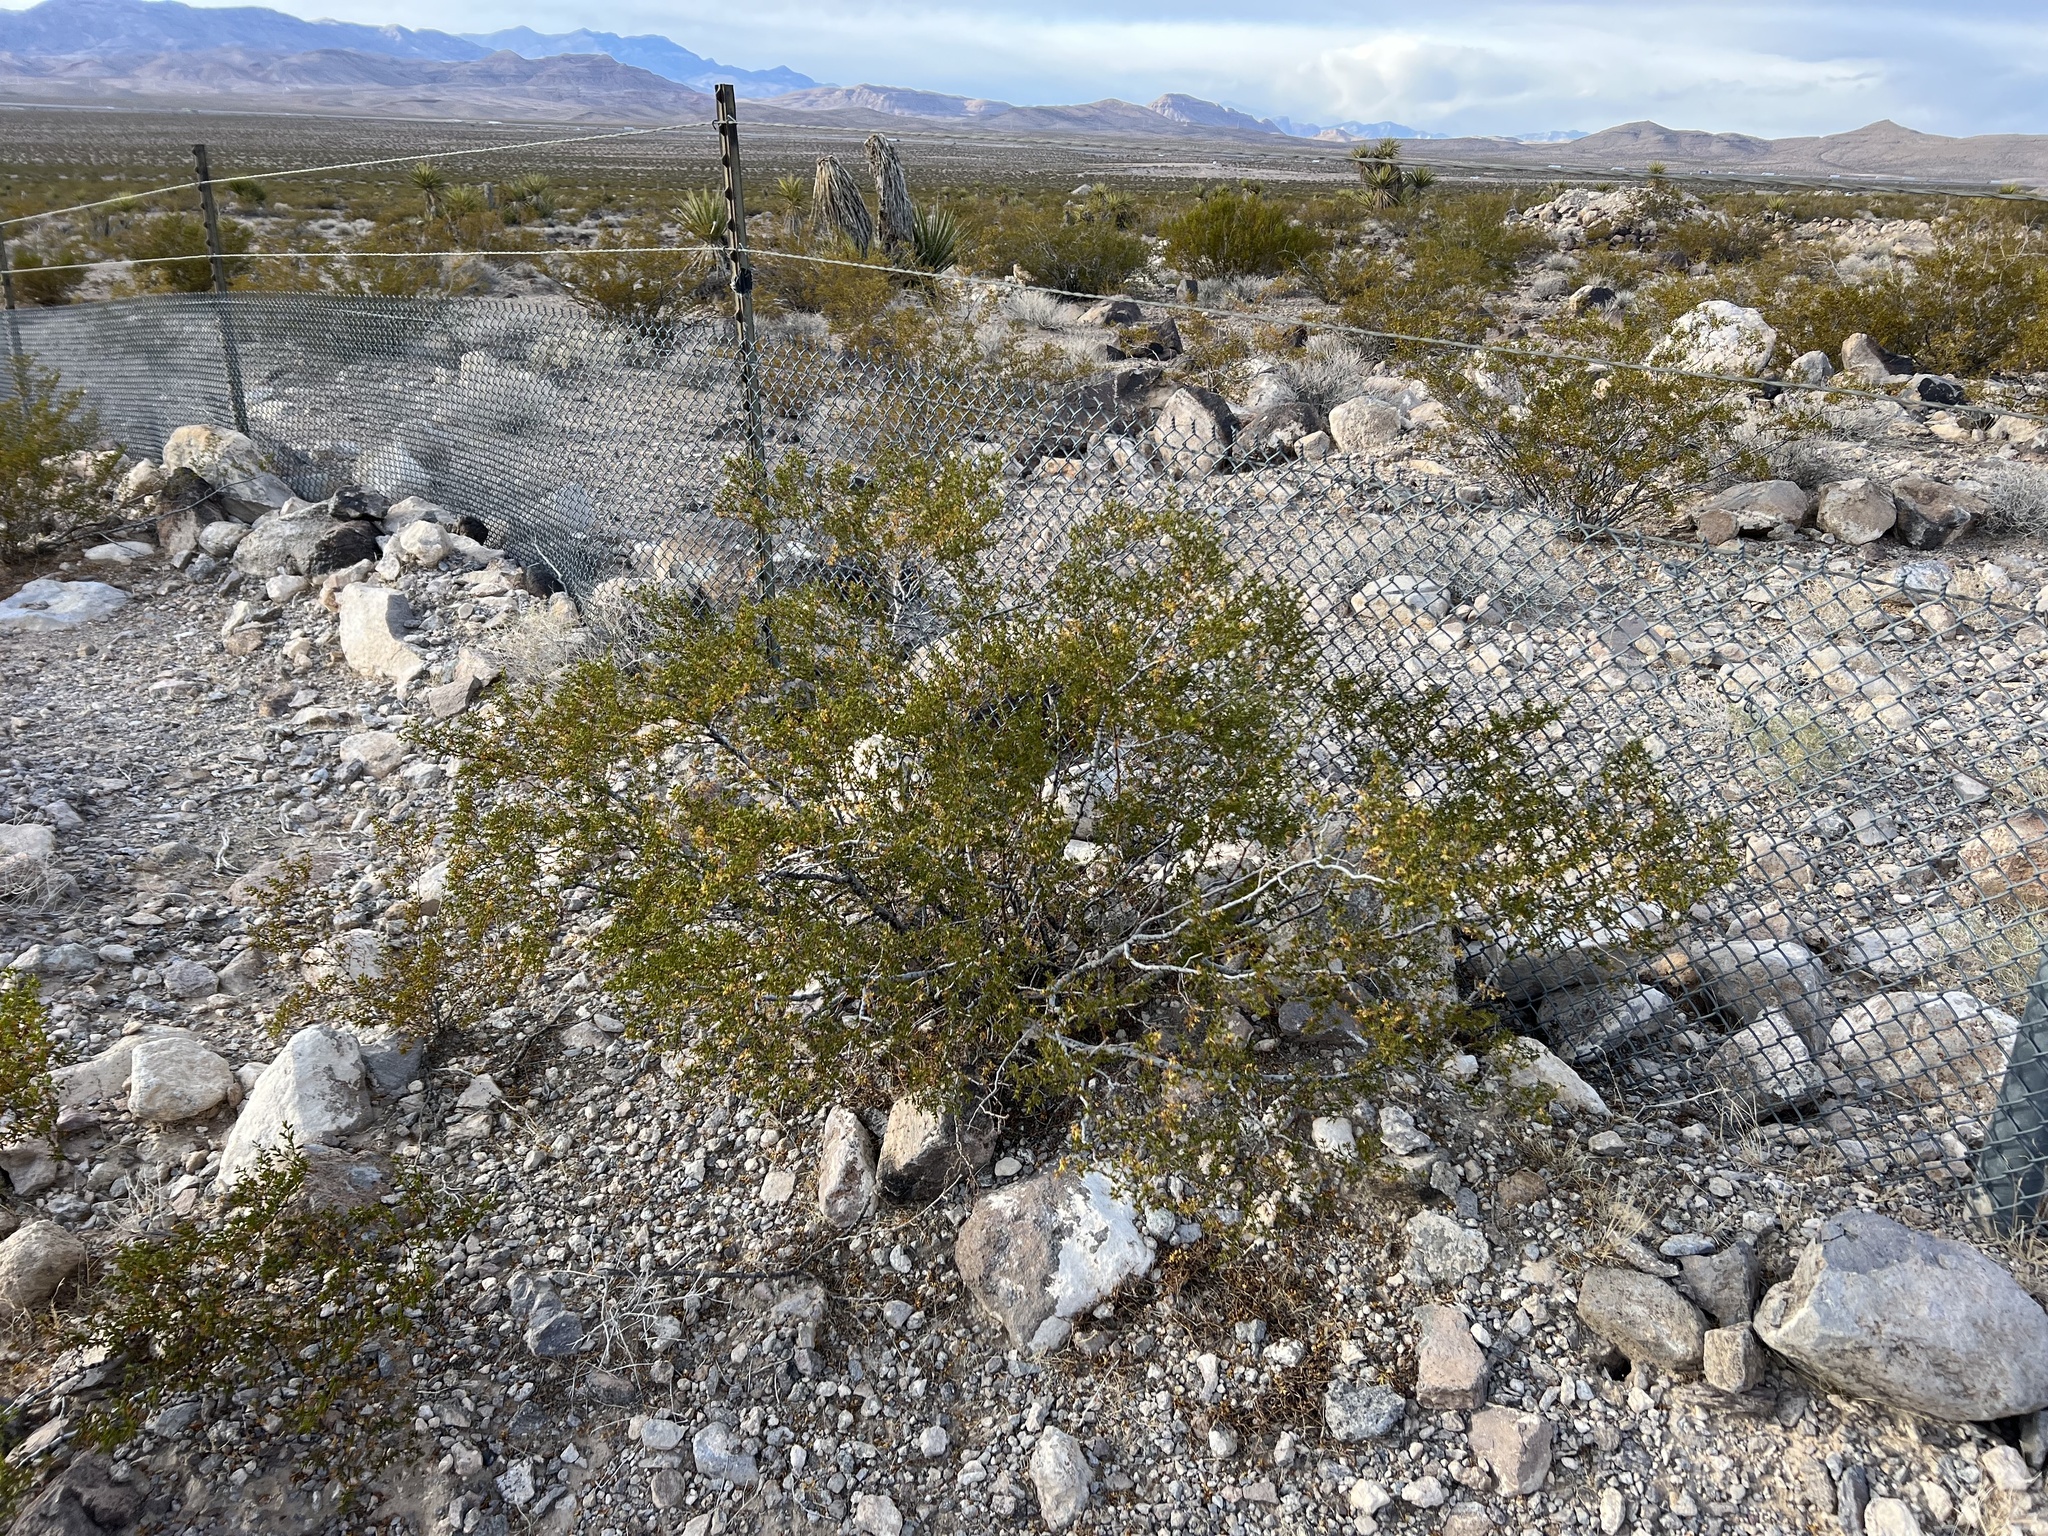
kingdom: Plantae
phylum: Tracheophyta
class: Magnoliopsida
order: Zygophyllales
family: Zygophyllaceae
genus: Larrea
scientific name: Larrea tridentata
